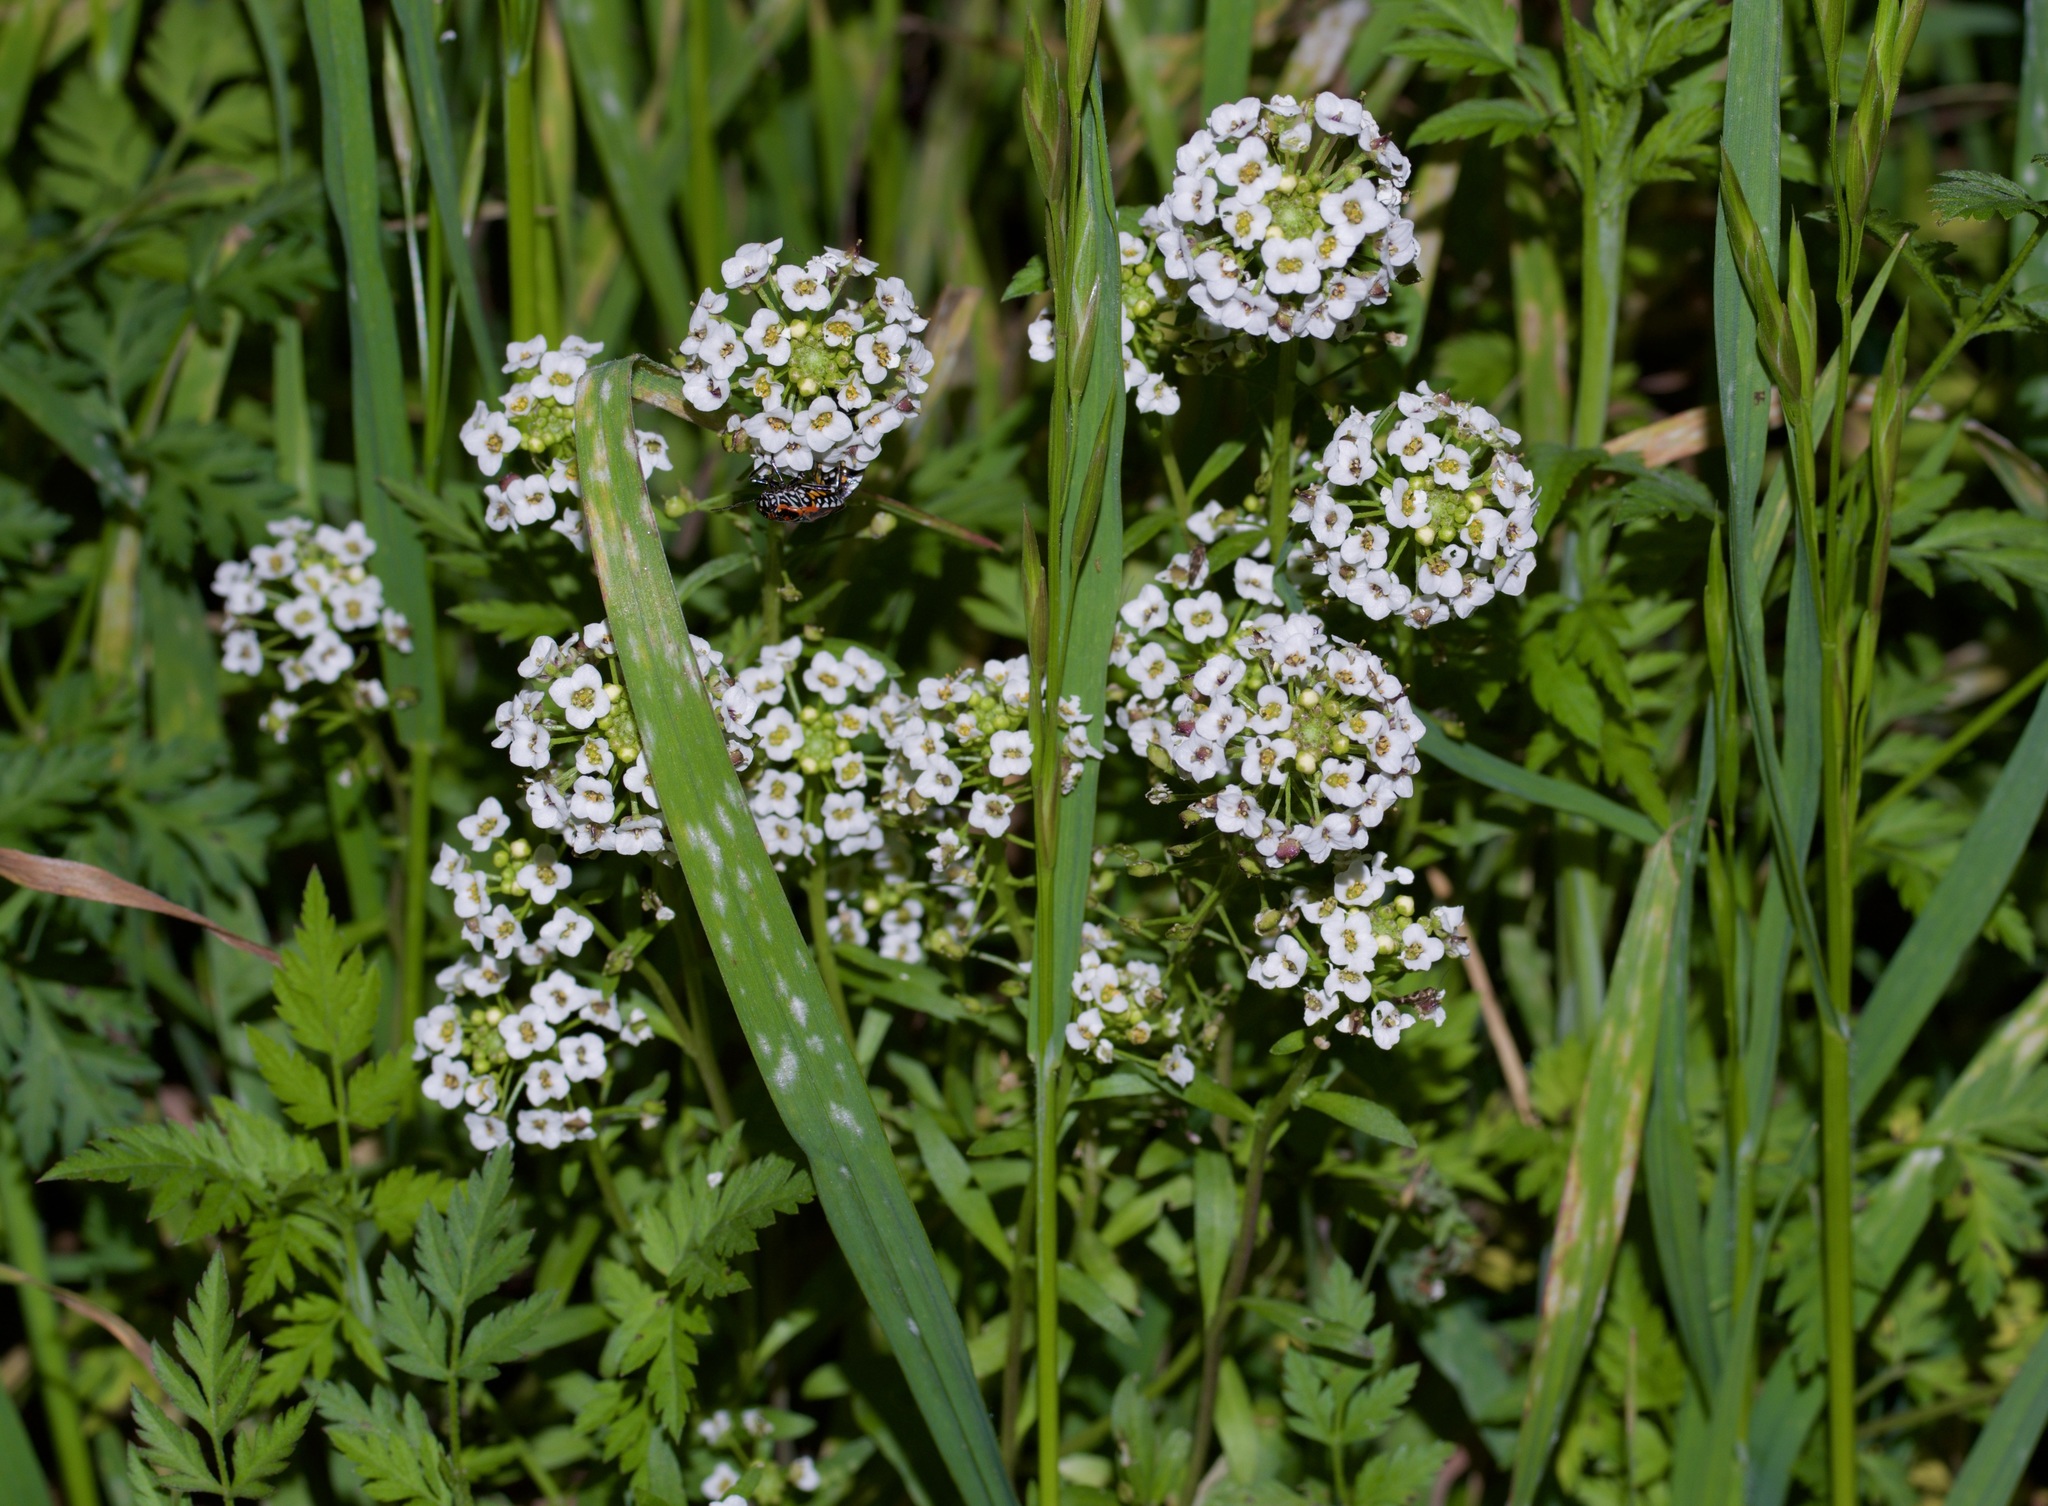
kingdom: Plantae
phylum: Tracheophyta
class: Magnoliopsida
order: Brassicales
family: Brassicaceae
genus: Lobularia
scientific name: Lobularia maritima
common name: Sweet alison
